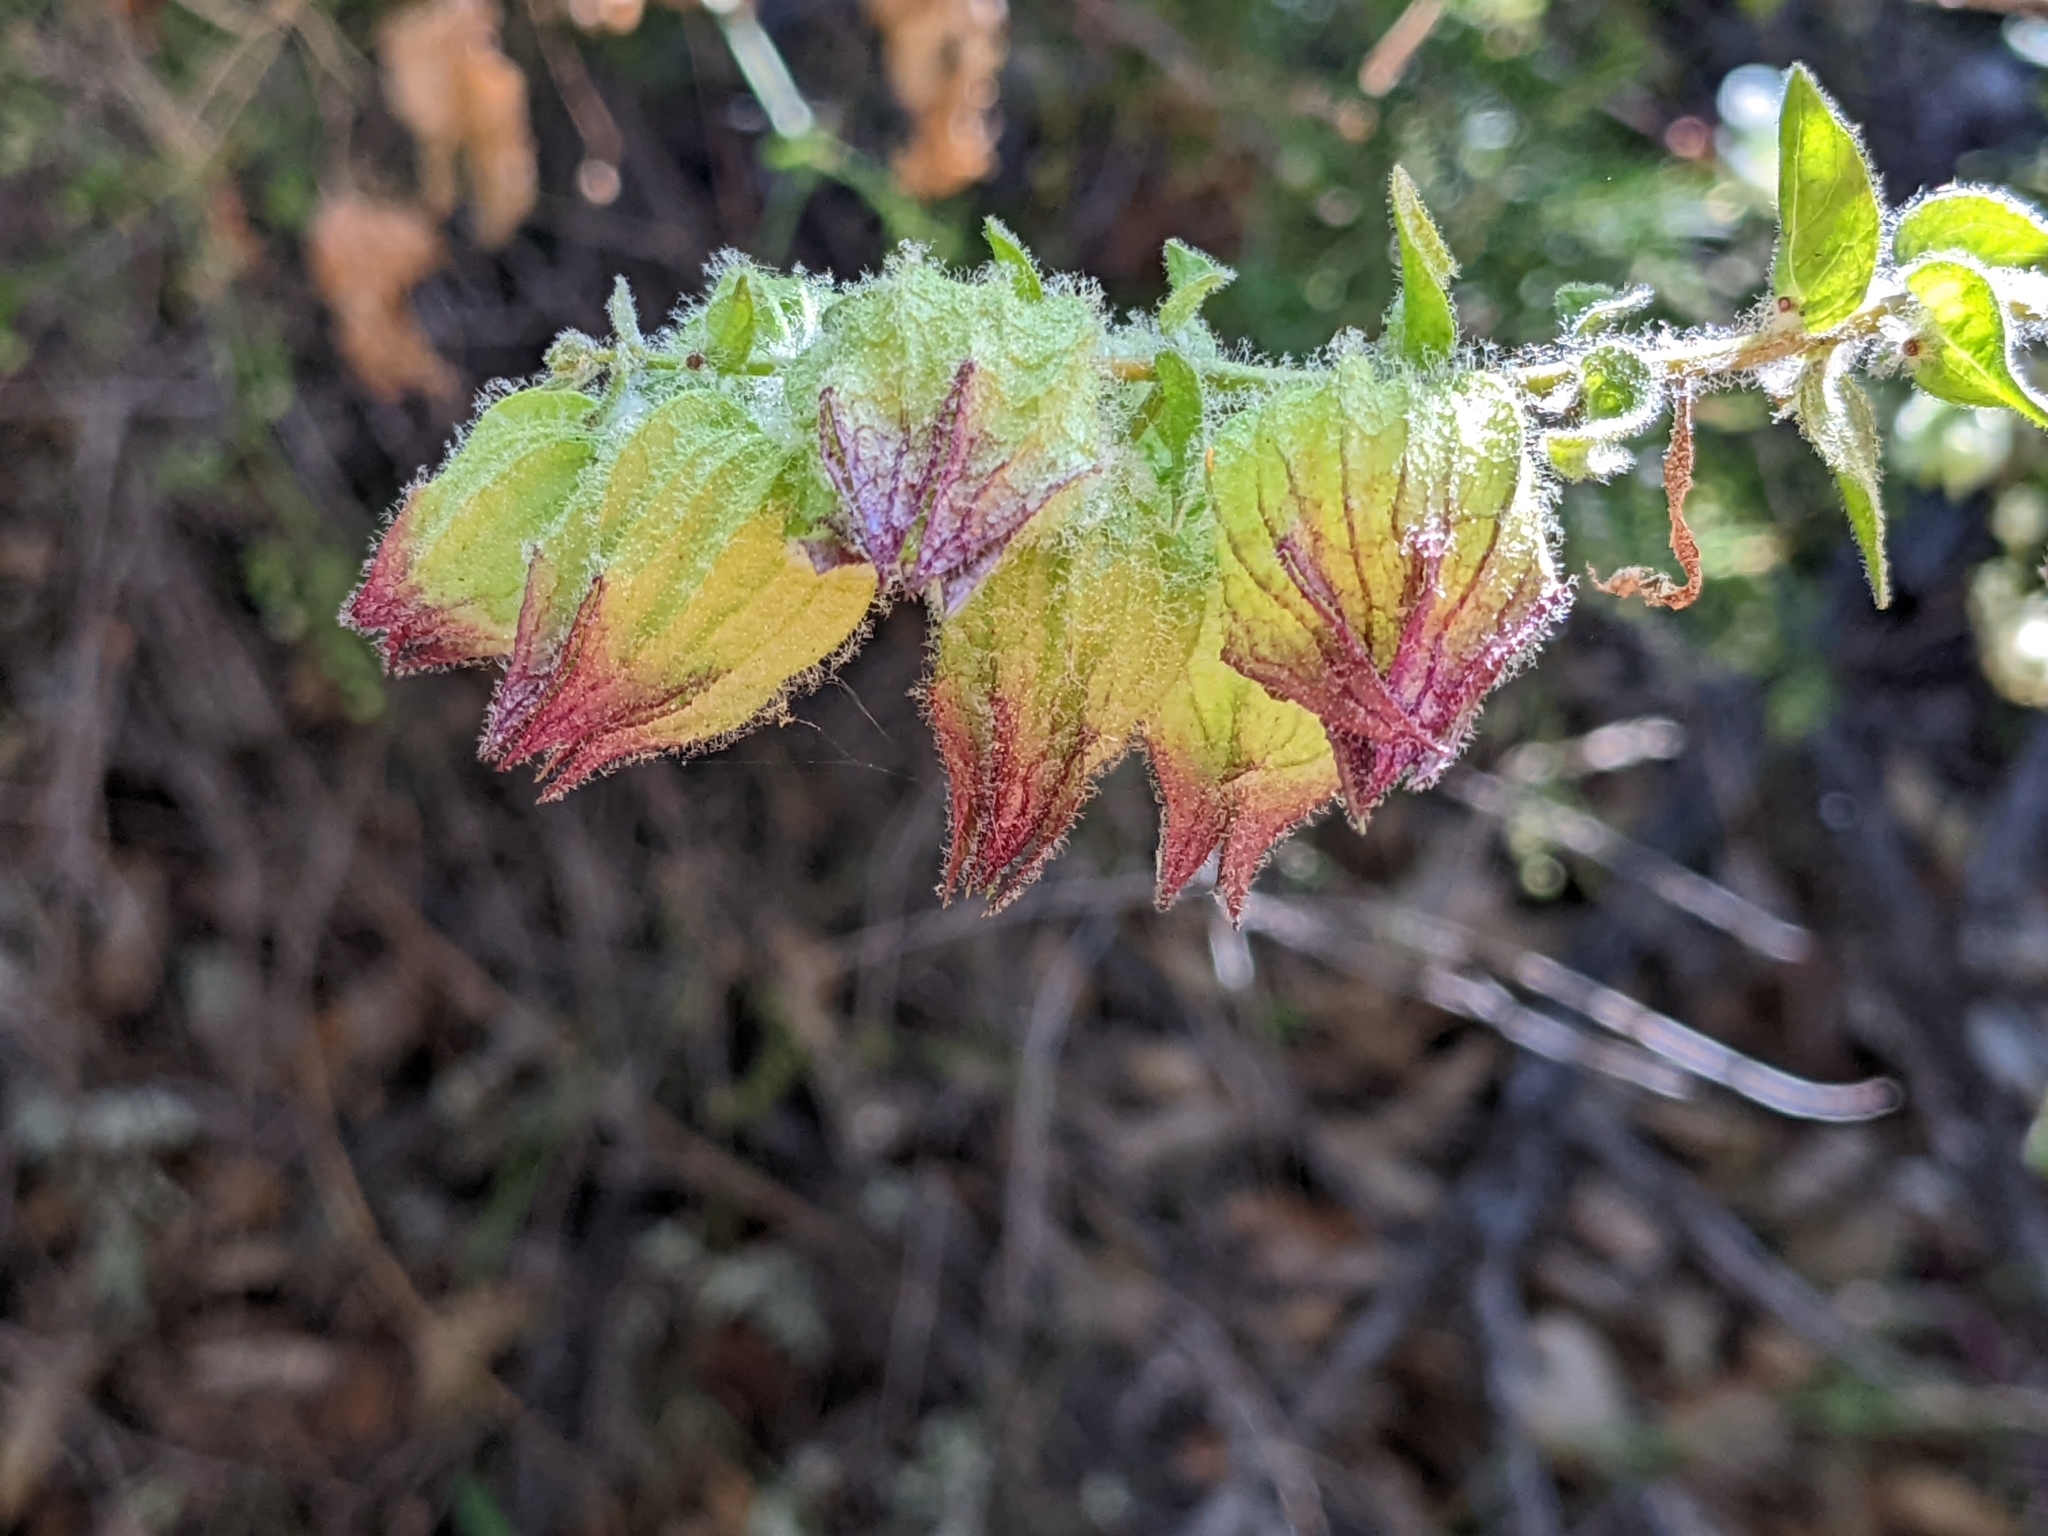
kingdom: Plantae
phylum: Tracheophyta
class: Magnoliopsida
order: Lamiales
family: Lamiaceae
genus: Lepechinia
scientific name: Lepechinia calycina
